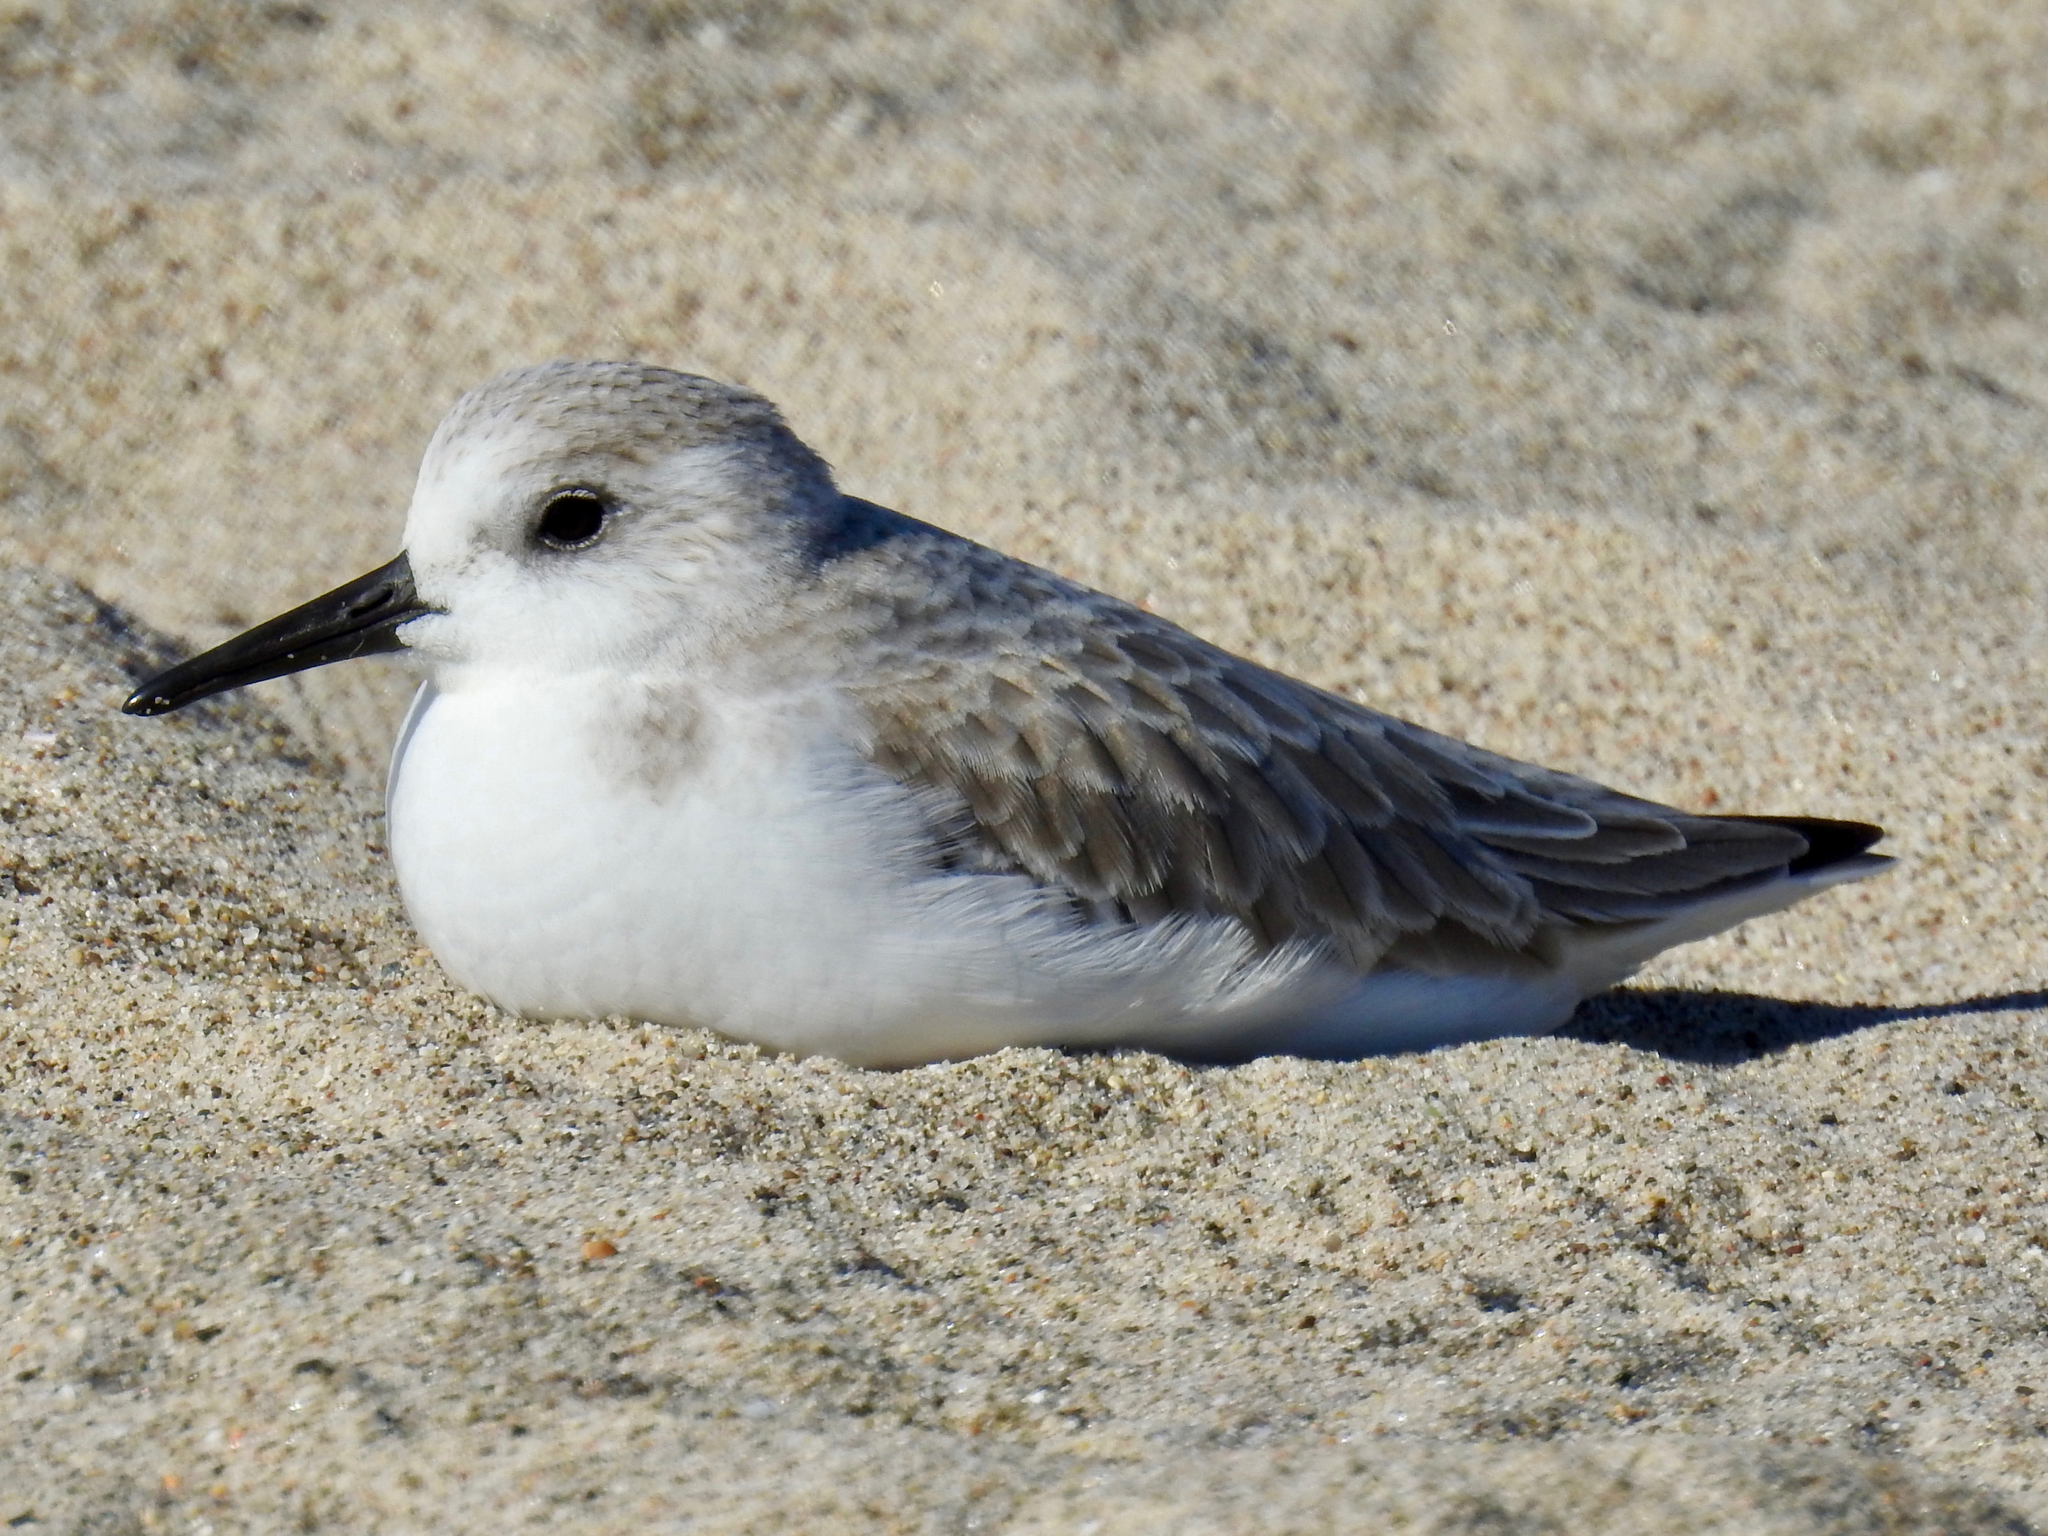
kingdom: Animalia
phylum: Chordata
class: Aves
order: Charadriiformes
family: Scolopacidae
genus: Calidris
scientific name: Calidris alba
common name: Sanderling
